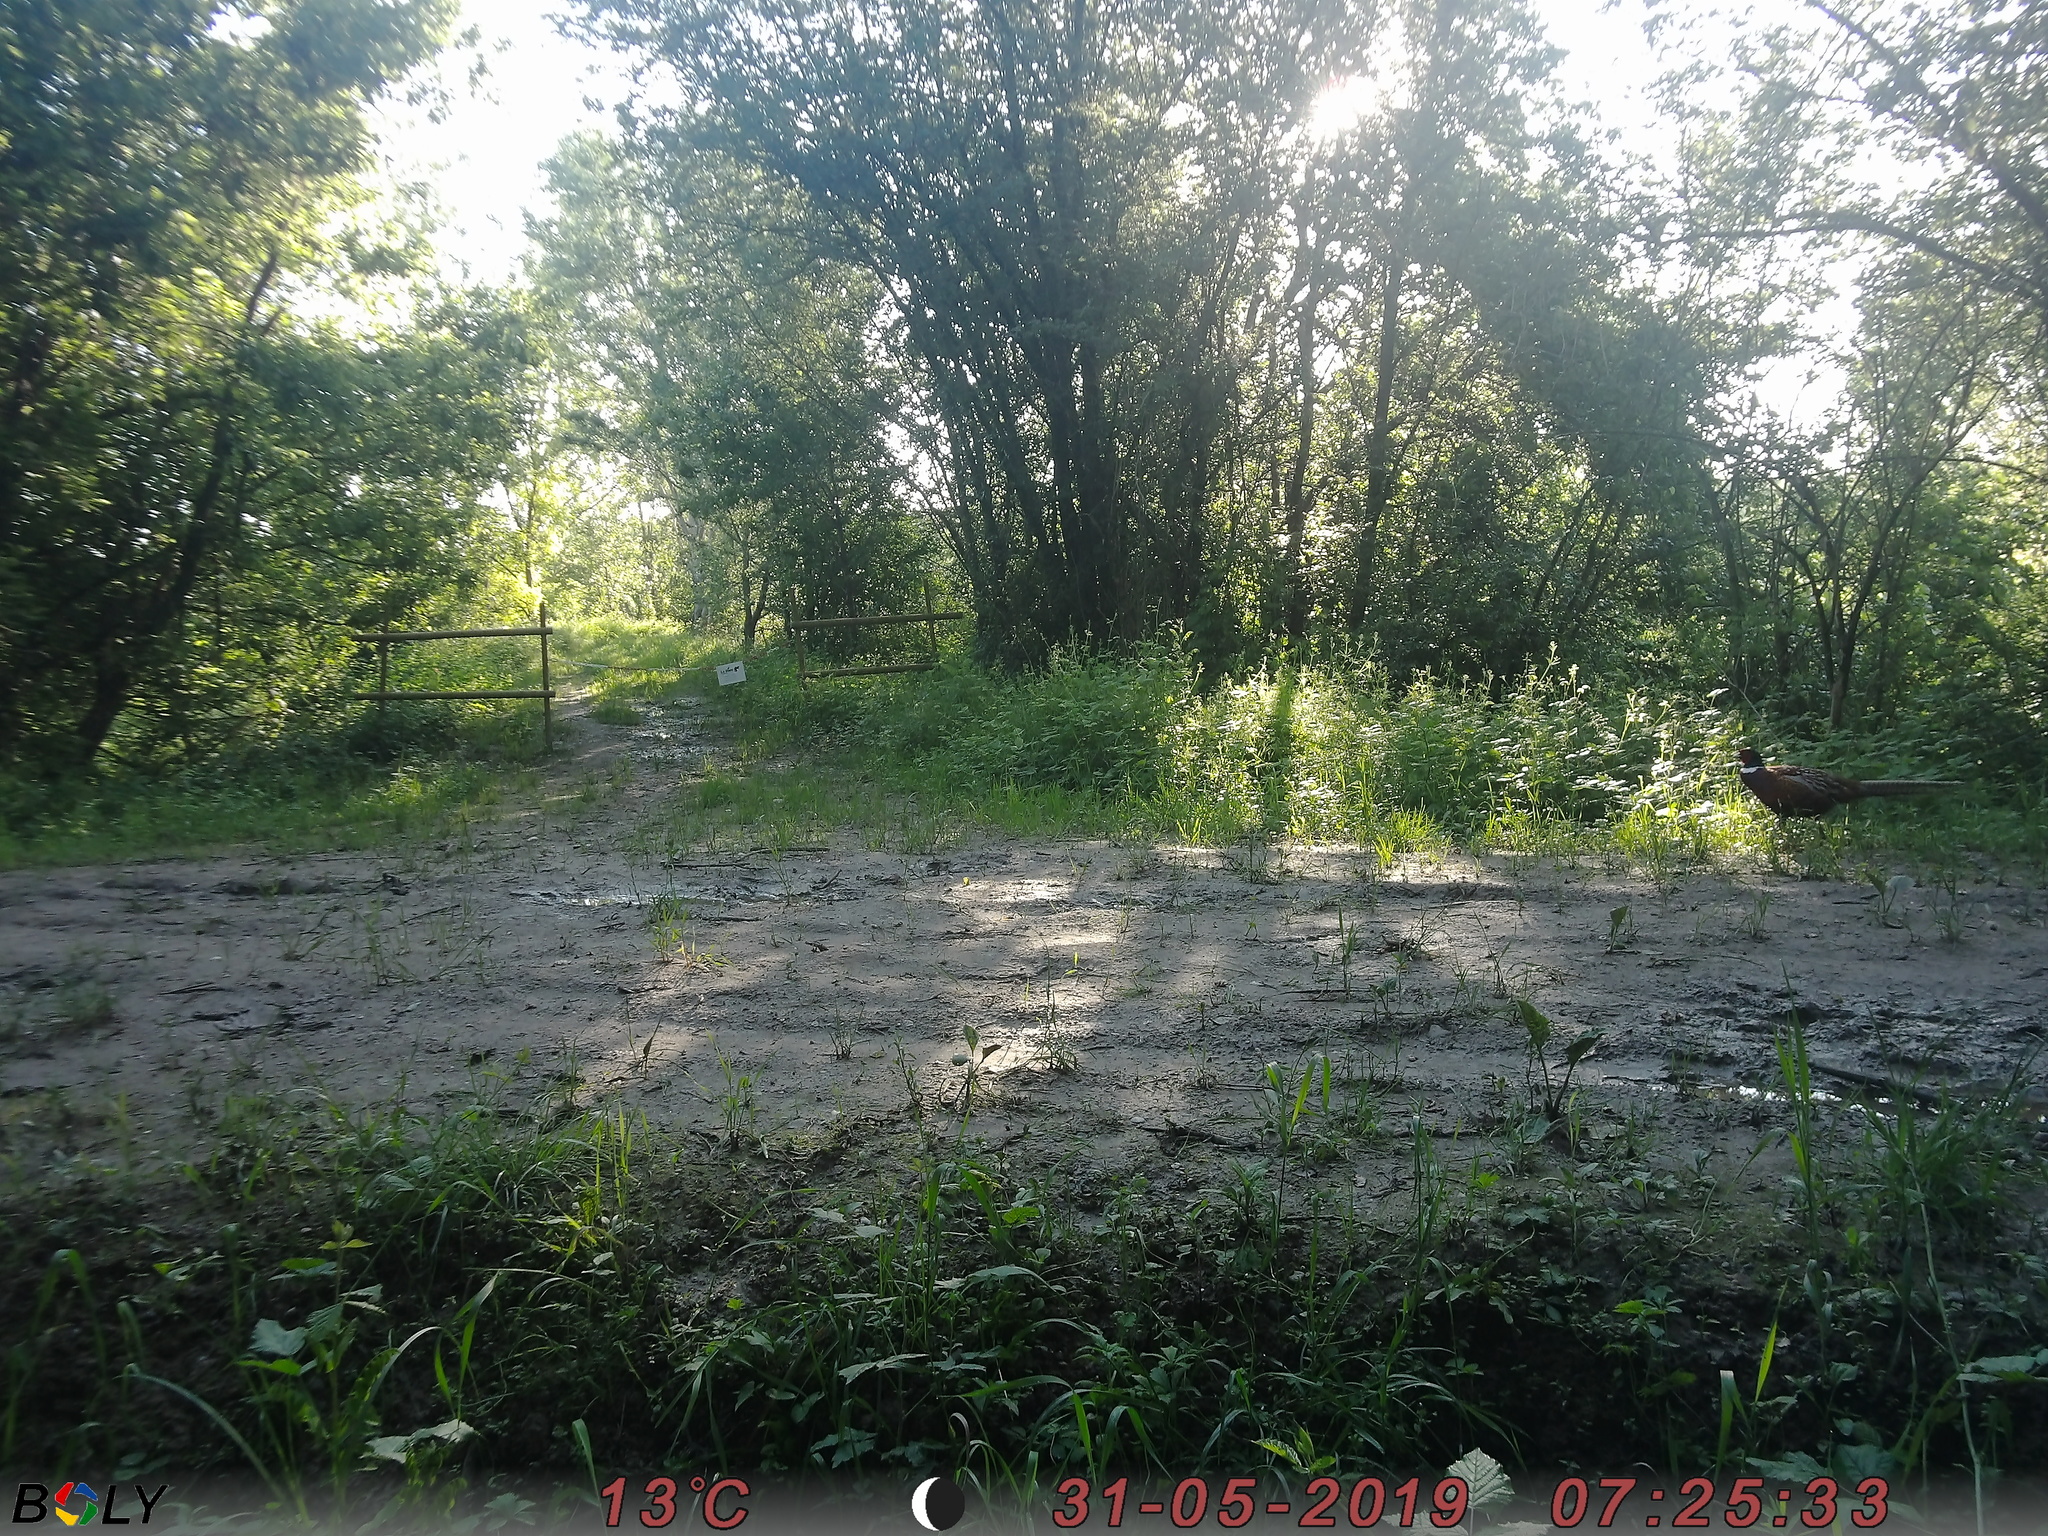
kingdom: Animalia
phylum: Chordata
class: Aves
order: Galliformes
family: Phasianidae
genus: Phasianus
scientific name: Phasianus colchicus
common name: Common pheasant
